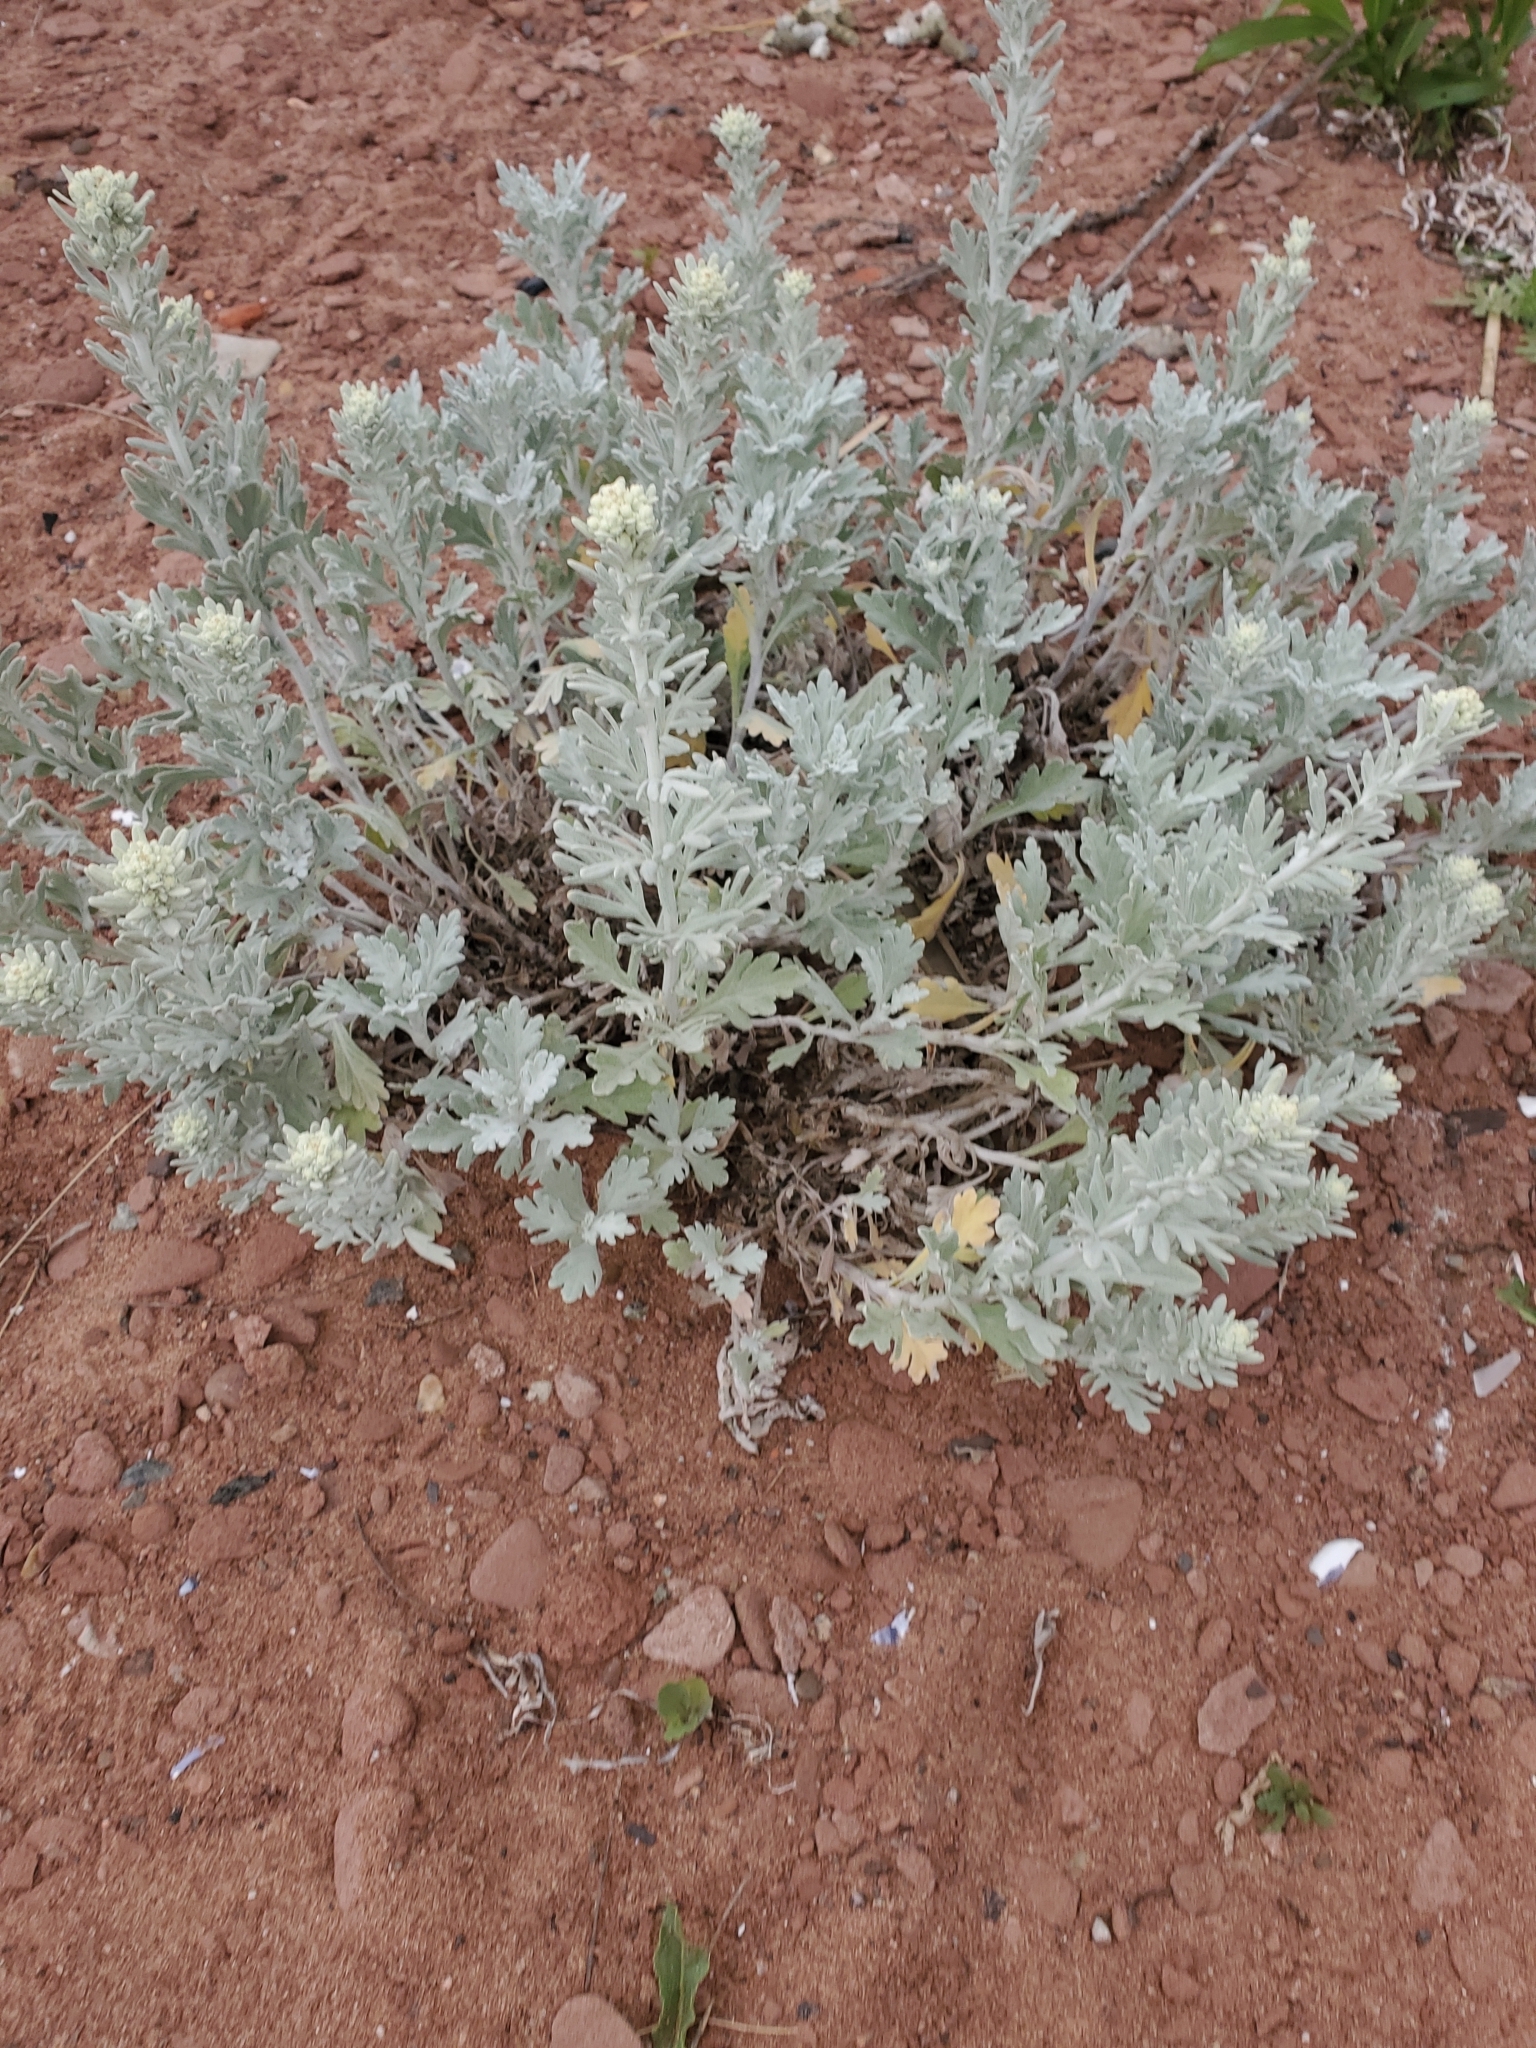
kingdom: Plantae
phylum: Tracheophyta
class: Magnoliopsida
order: Asterales
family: Asteraceae
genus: Artemisia
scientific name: Artemisia stelleriana
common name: Beach wormwood
